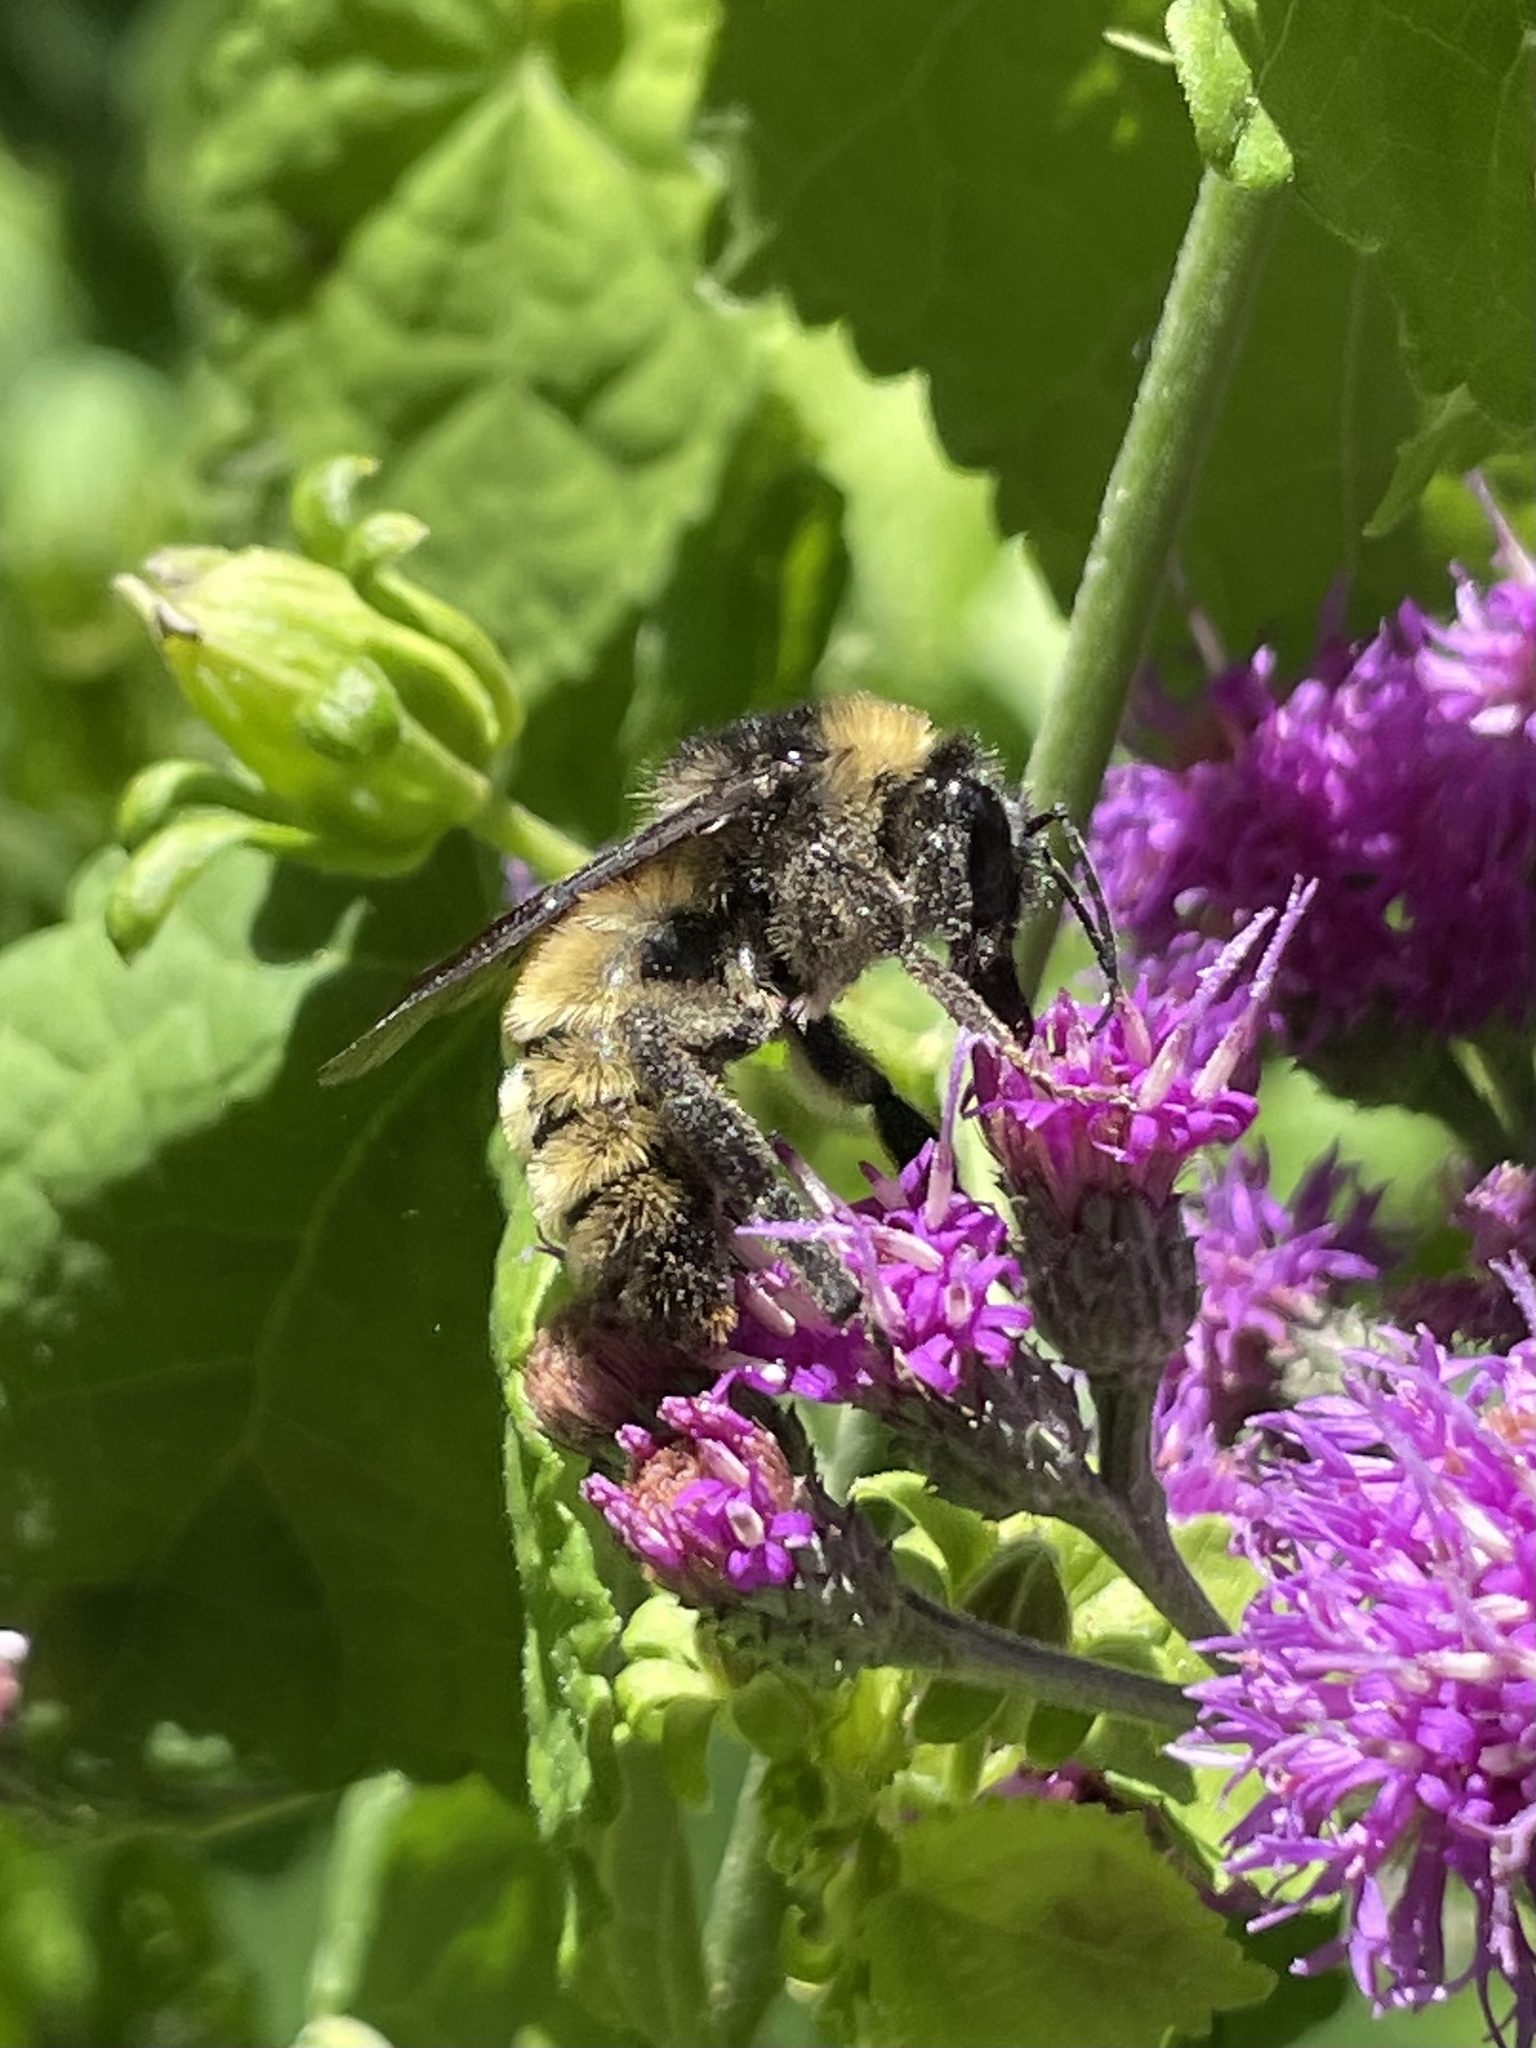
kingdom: Animalia
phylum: Arthropoda
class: Insecta
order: Hymenoptera
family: Apidae
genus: Bombus
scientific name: Bombus pensylvanicus
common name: Bumble bee
